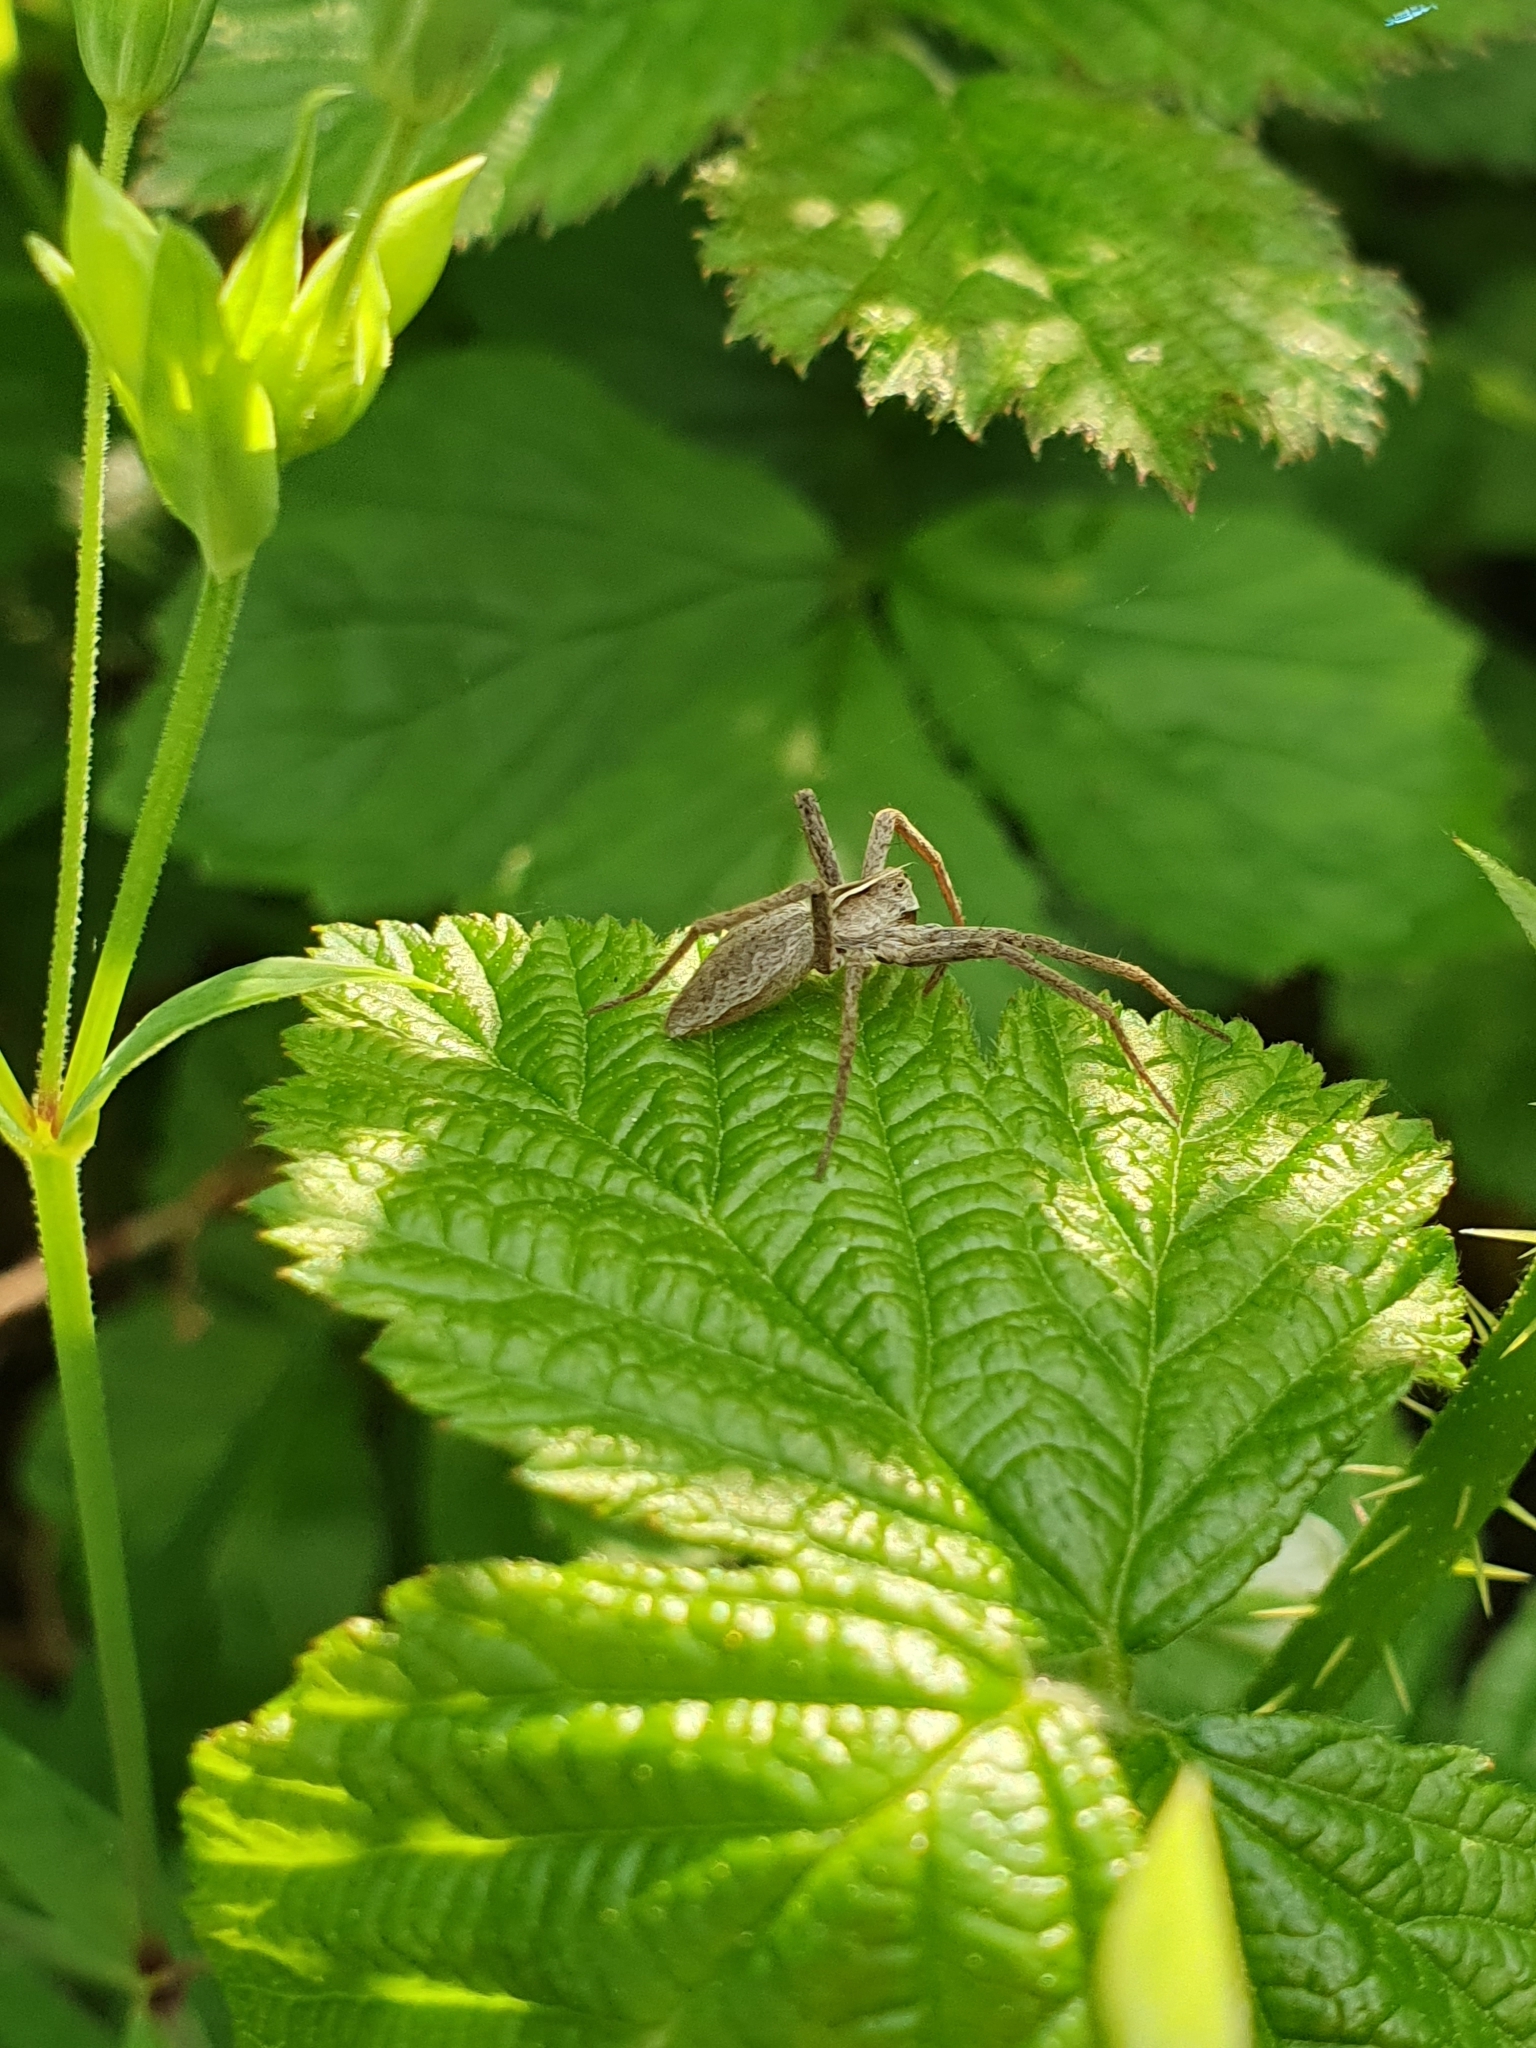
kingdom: Animalia
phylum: Arthropoda
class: Arachnida
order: Araneae
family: Pisauridae
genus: Pisaura
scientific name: Pisaura mirabilis
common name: Tent spider
